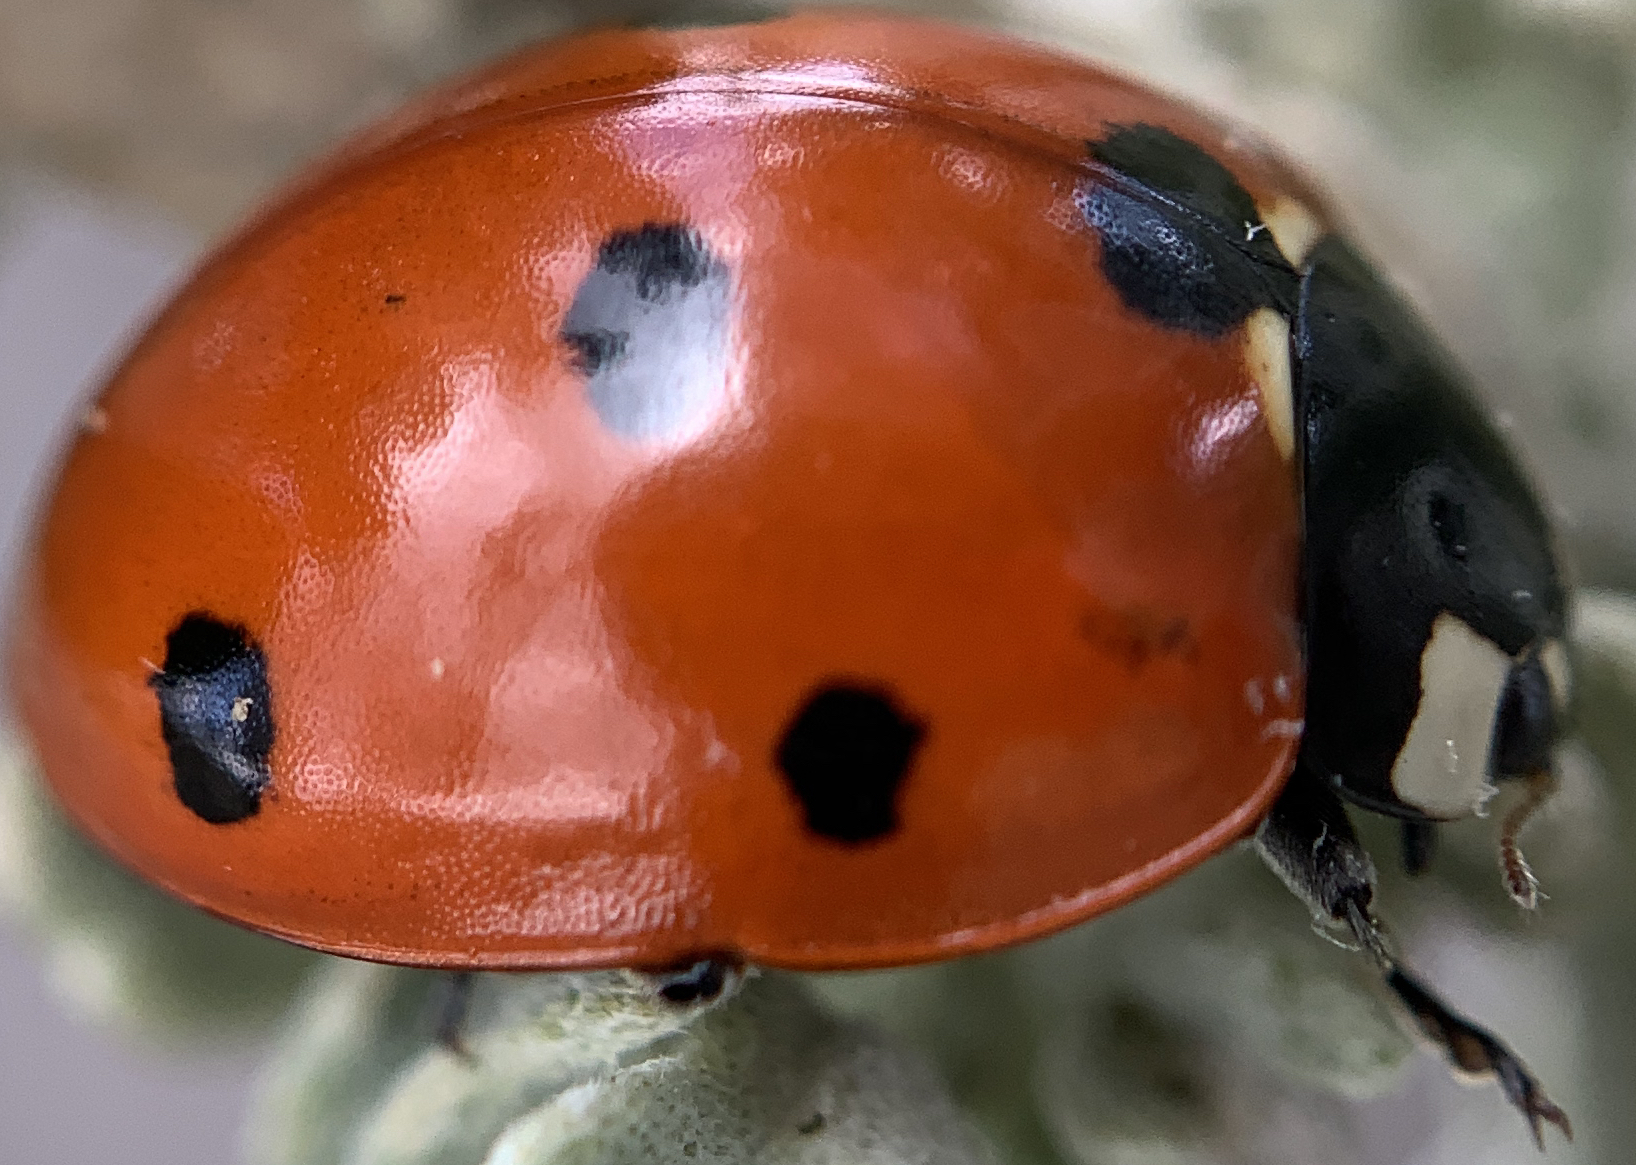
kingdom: Animalia
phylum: Arthropoda
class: Insecta
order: Coleoptera
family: Coccinellidae
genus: Coccinella
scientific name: Coccinella septempunctata
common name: Sevenspotted lady beetle
